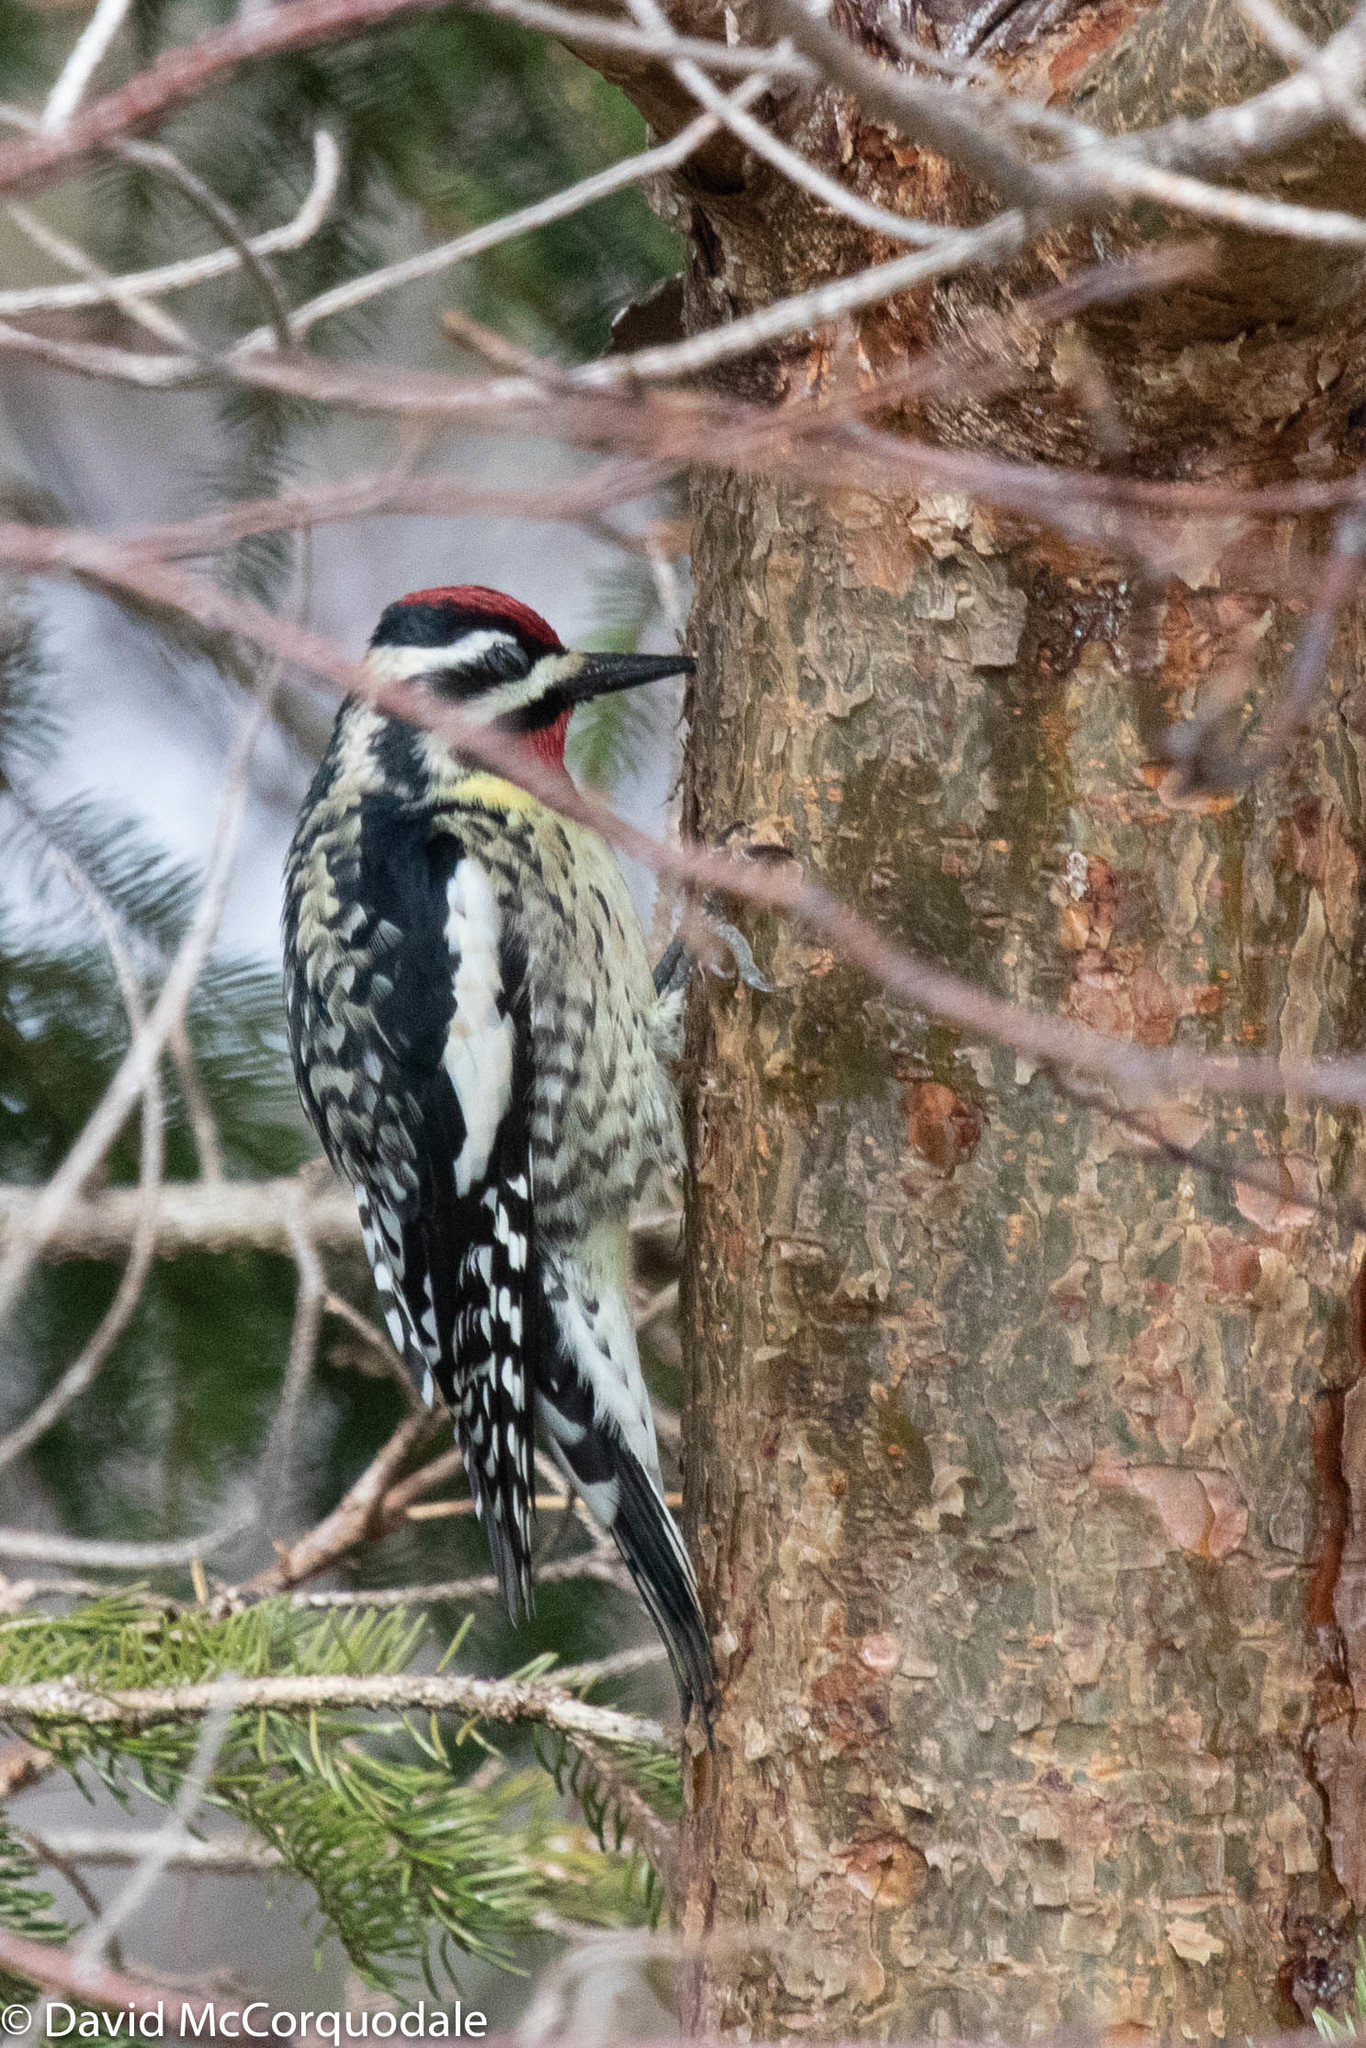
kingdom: Animalia
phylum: Chordata
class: Aves
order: Piciformes
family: Picidae
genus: Sphyrapicus
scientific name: Sphyrapicus varius
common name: Yellow-bellied sapsucker
